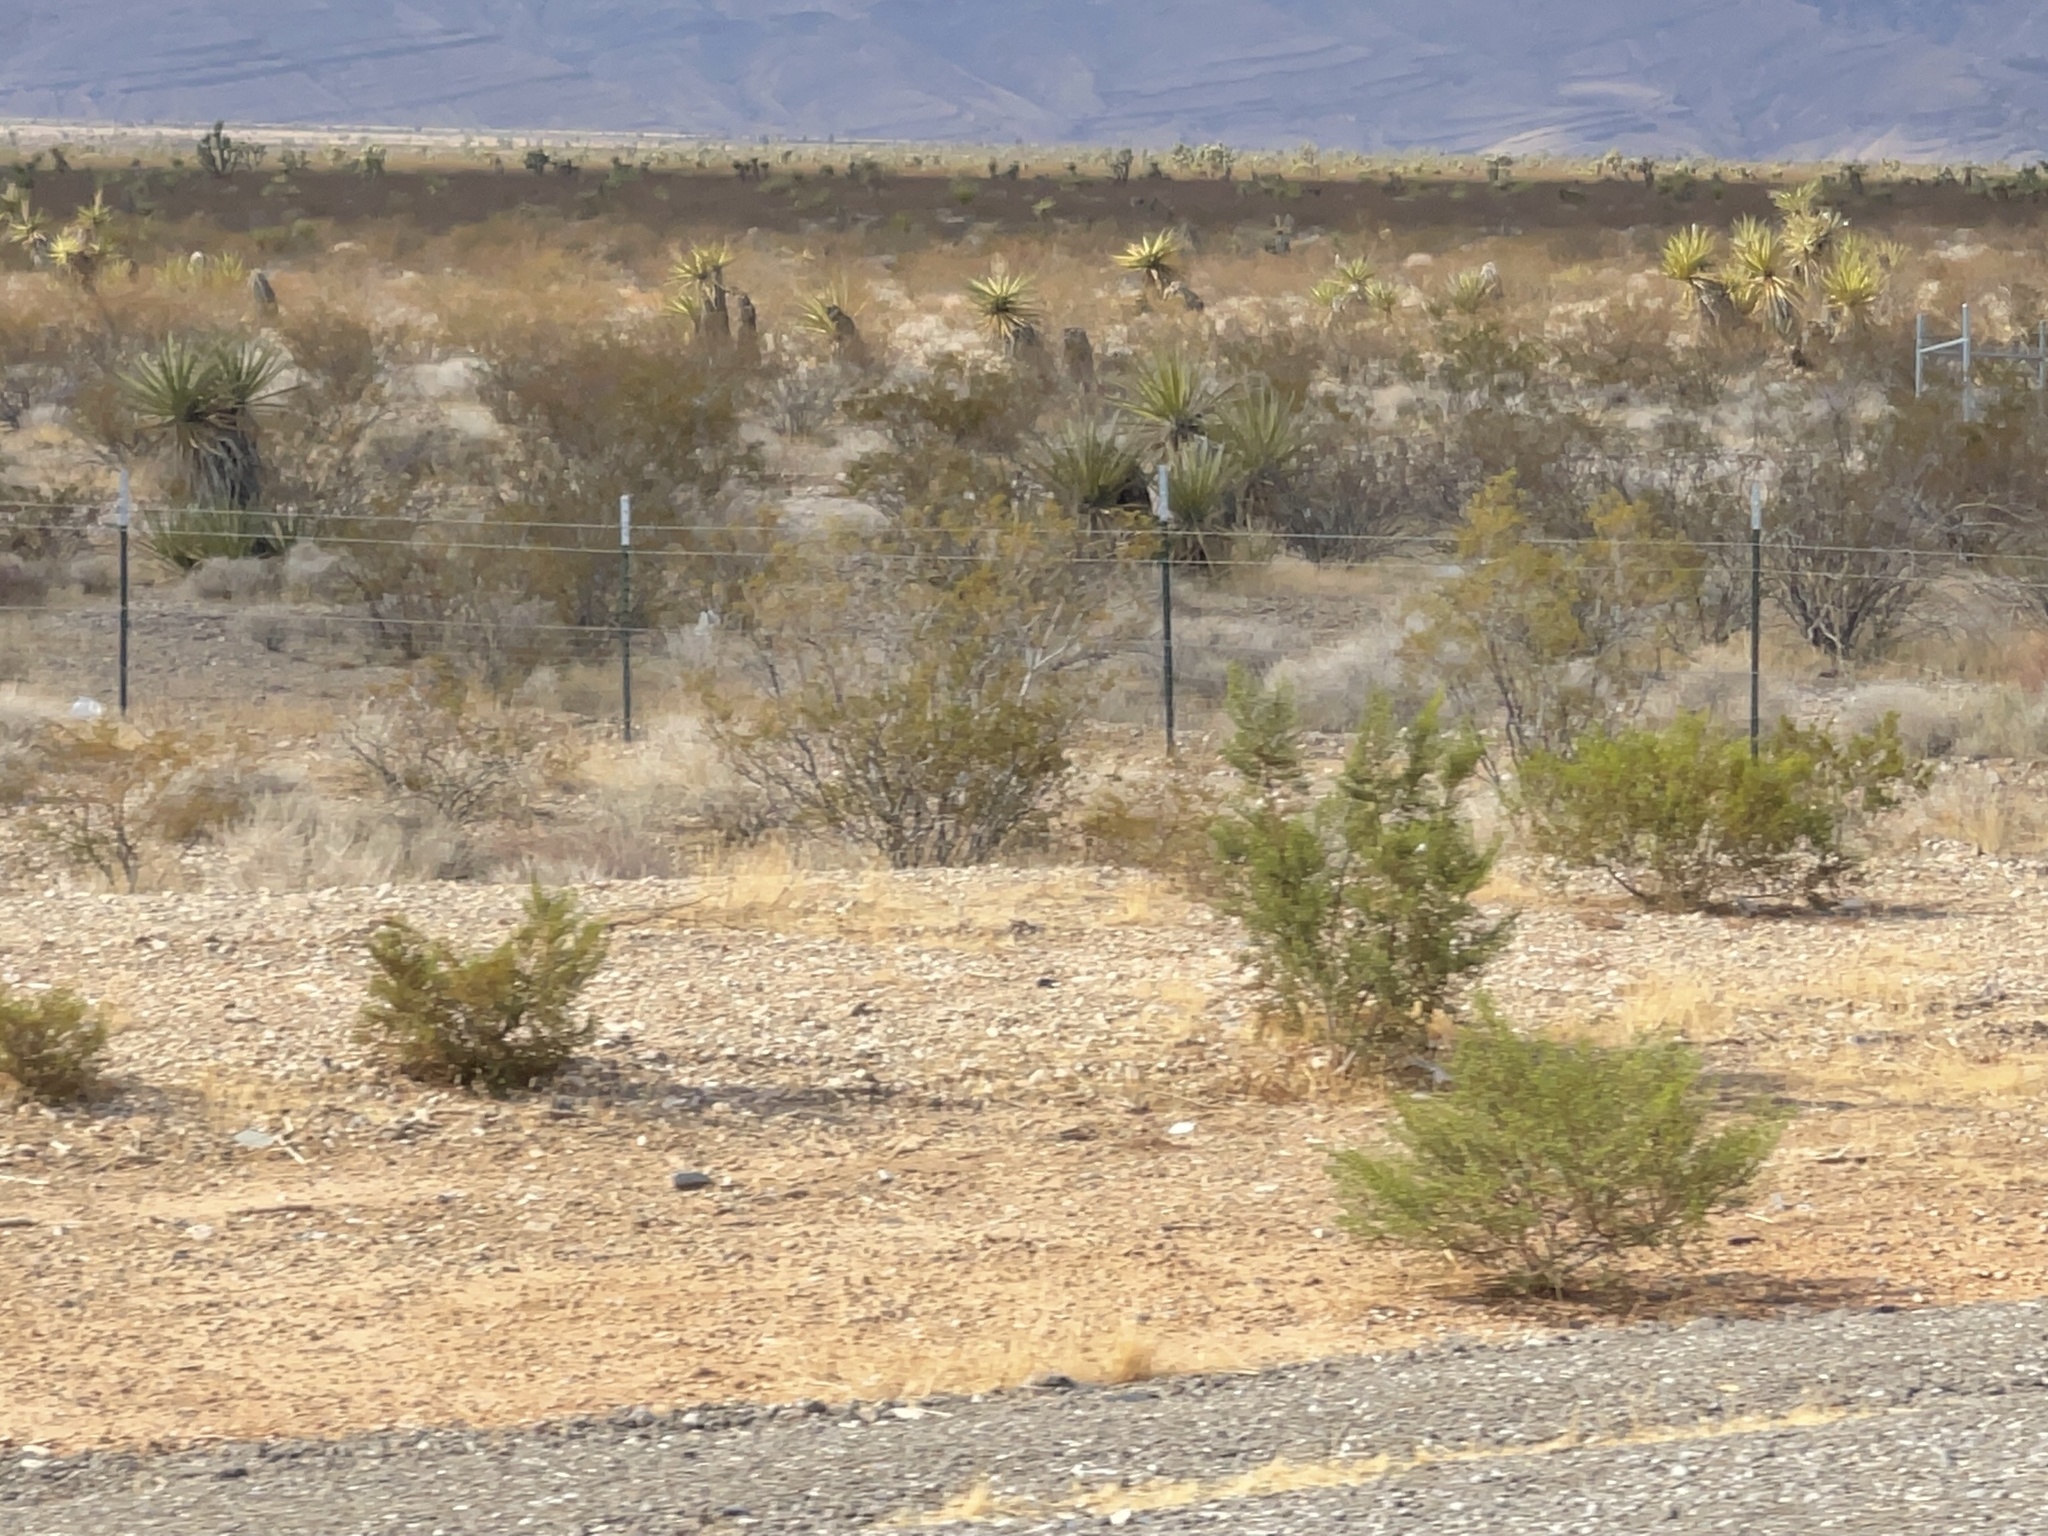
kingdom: Plantae
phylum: Tracheophyta
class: Magnoliopsida
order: Zygophyllales
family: Zygophyllaceae
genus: Larrea
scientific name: Larrea tridentata
